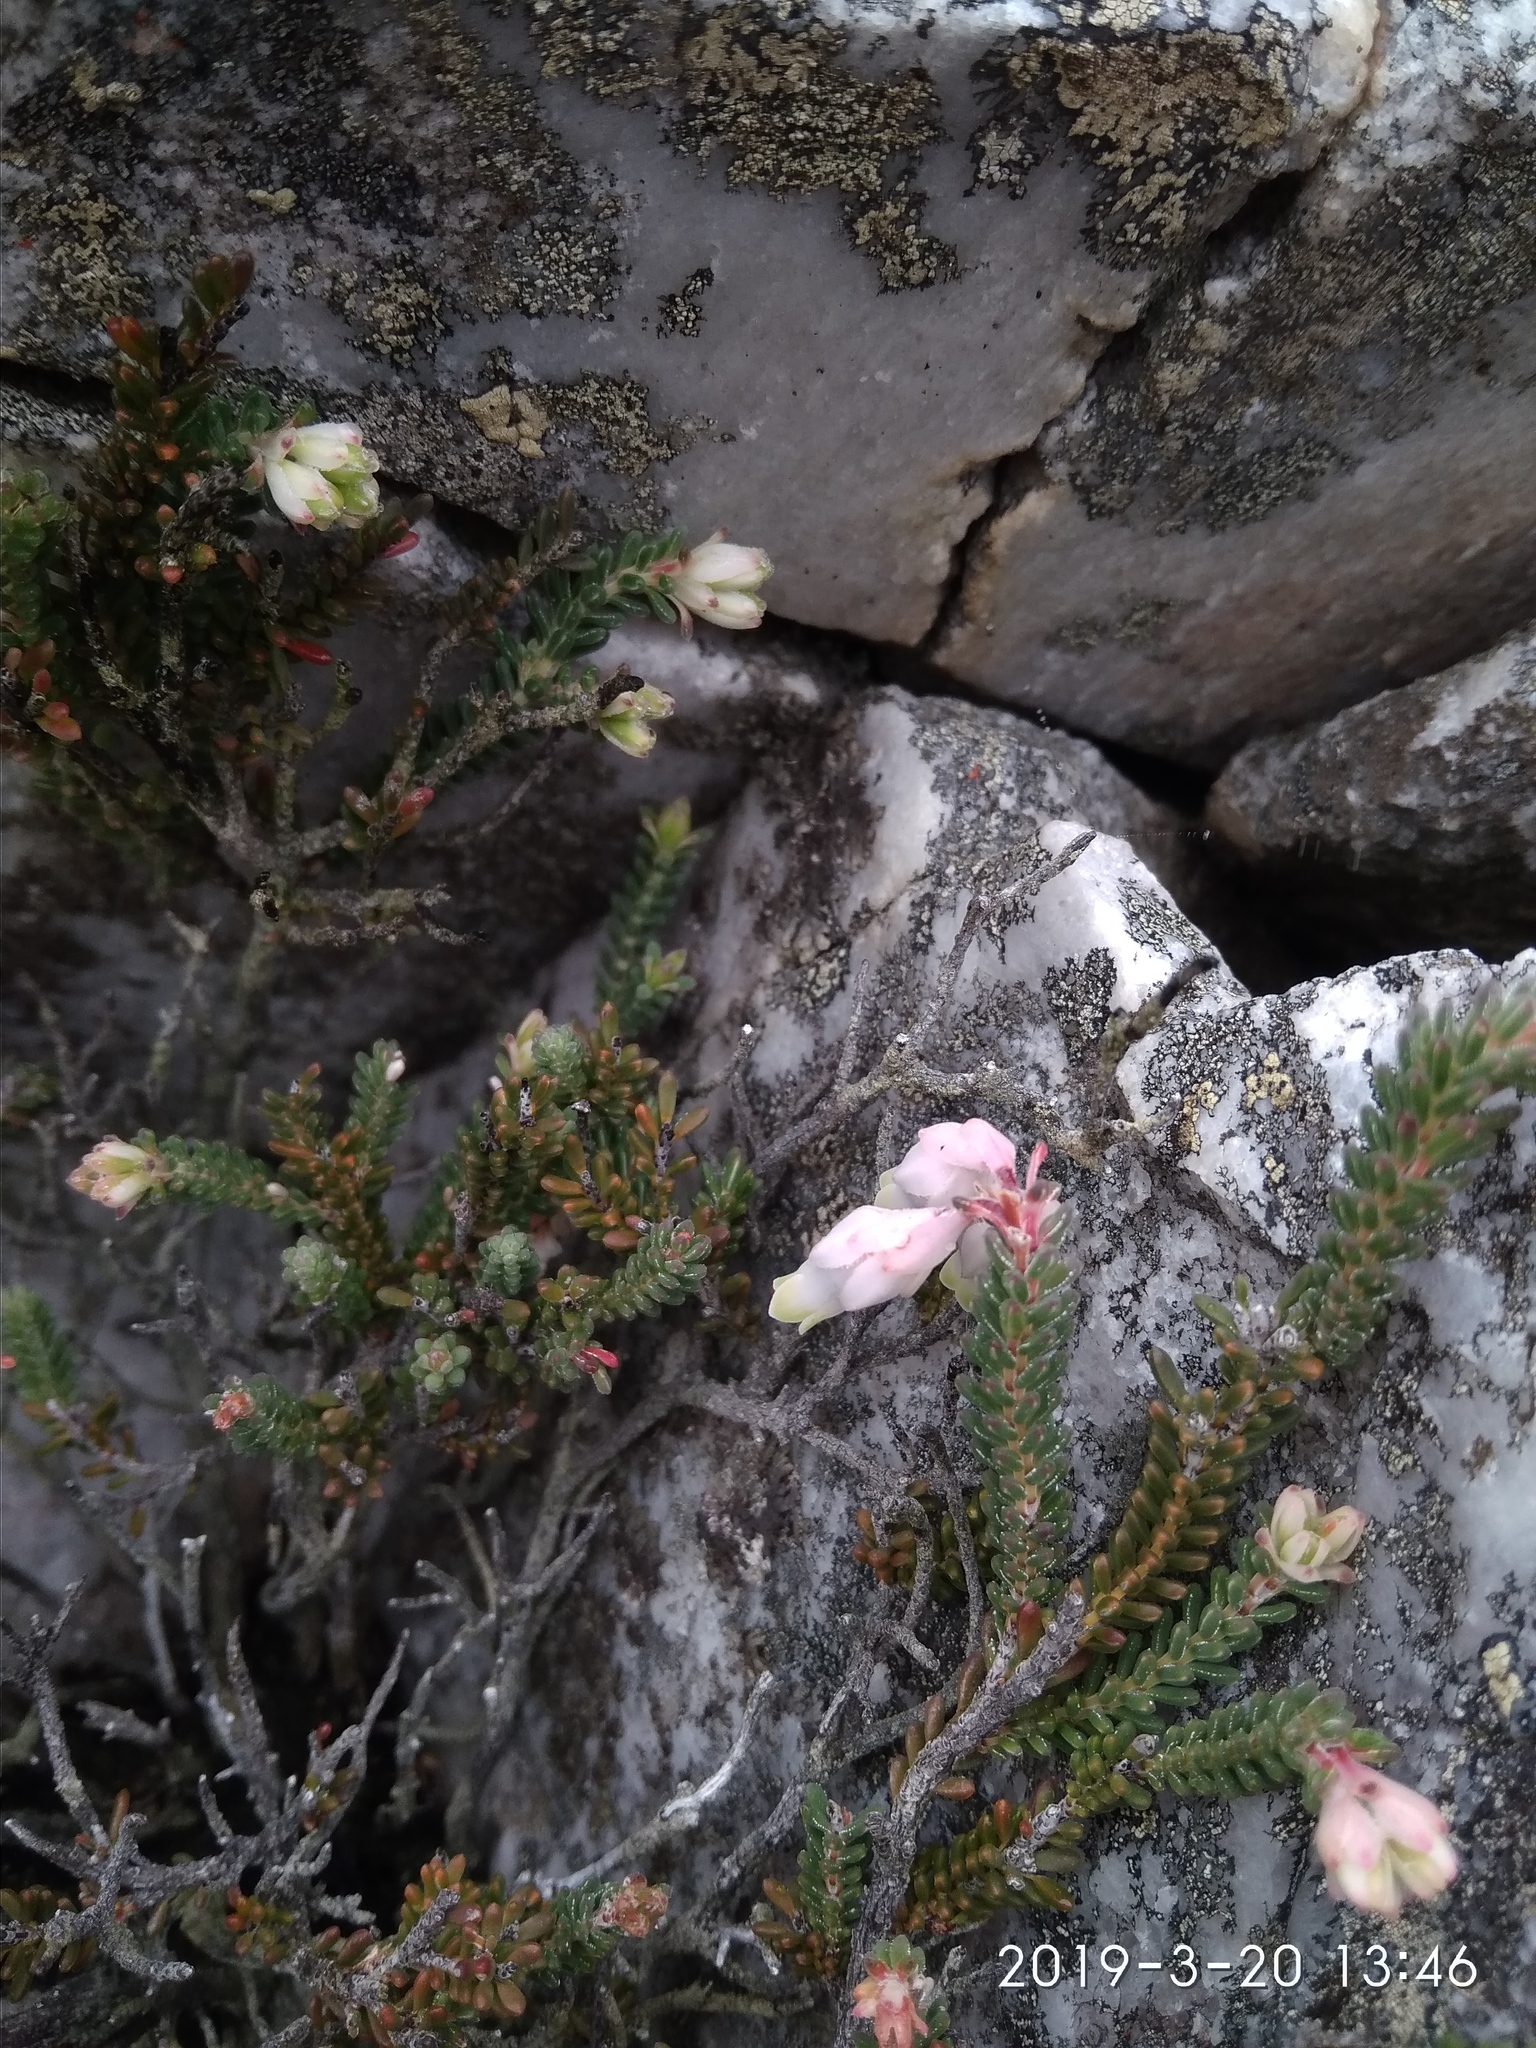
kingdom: Plantae
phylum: Tracheophyta
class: Magnoliopsida
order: Ericales
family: Ericaceae
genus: Erica
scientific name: Erica goatcheriana
